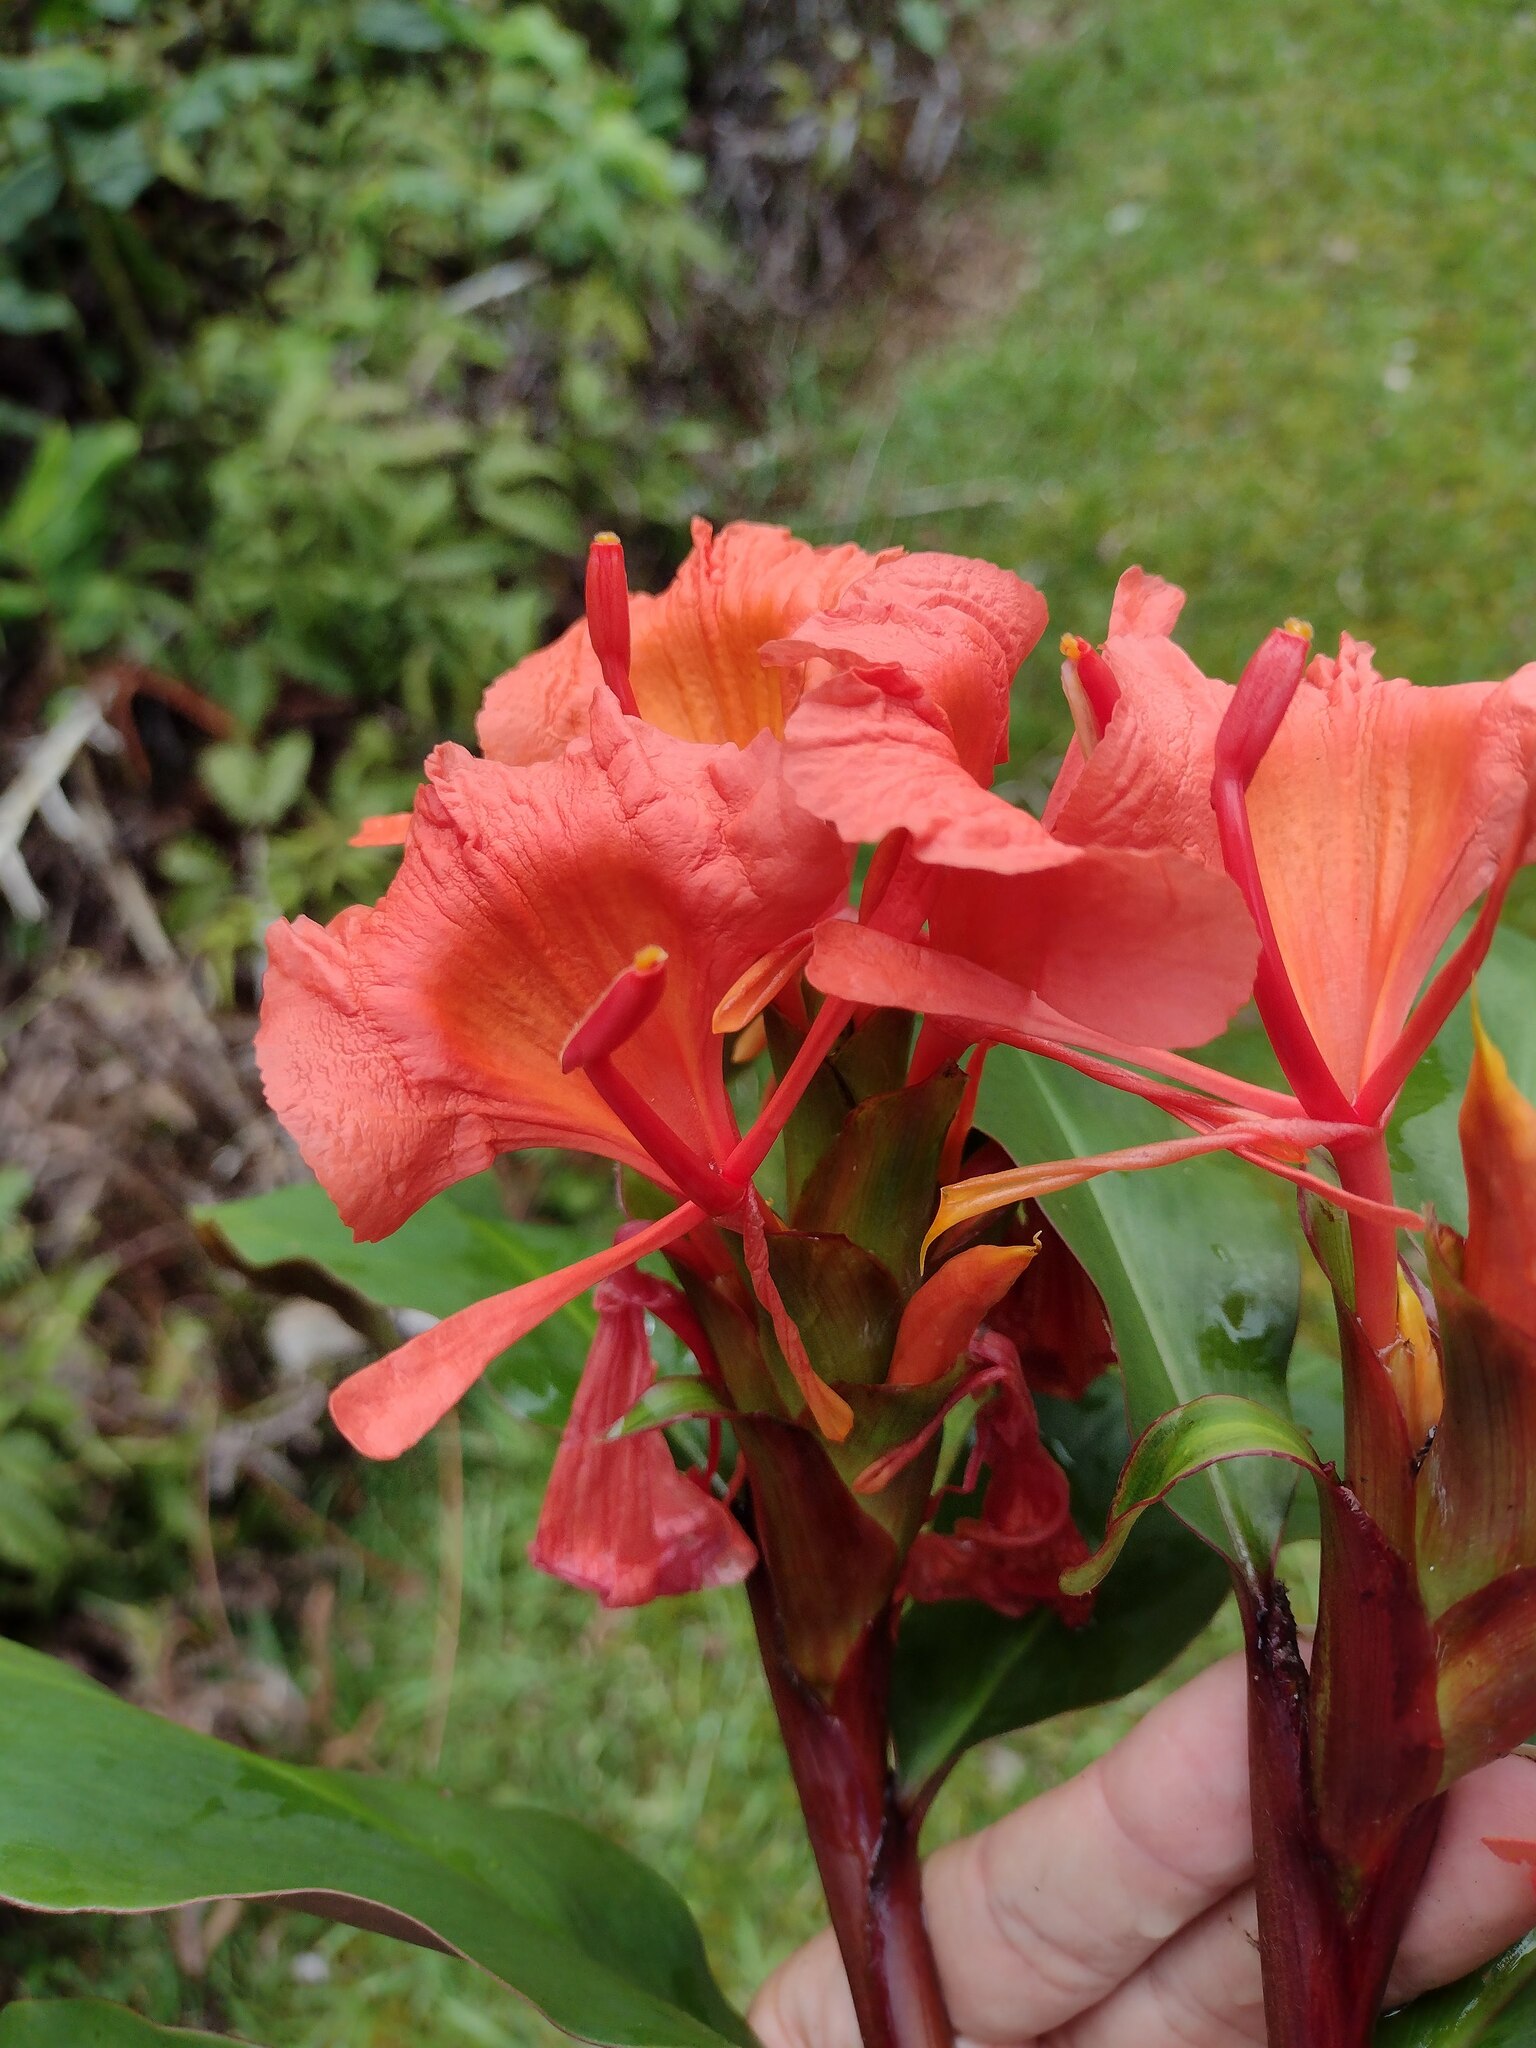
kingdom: Plantae
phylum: Tracheophyta
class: Liliopsida
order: Zingiberales
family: Zingiberaceae
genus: Hedychium
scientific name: Hedychium greenii
